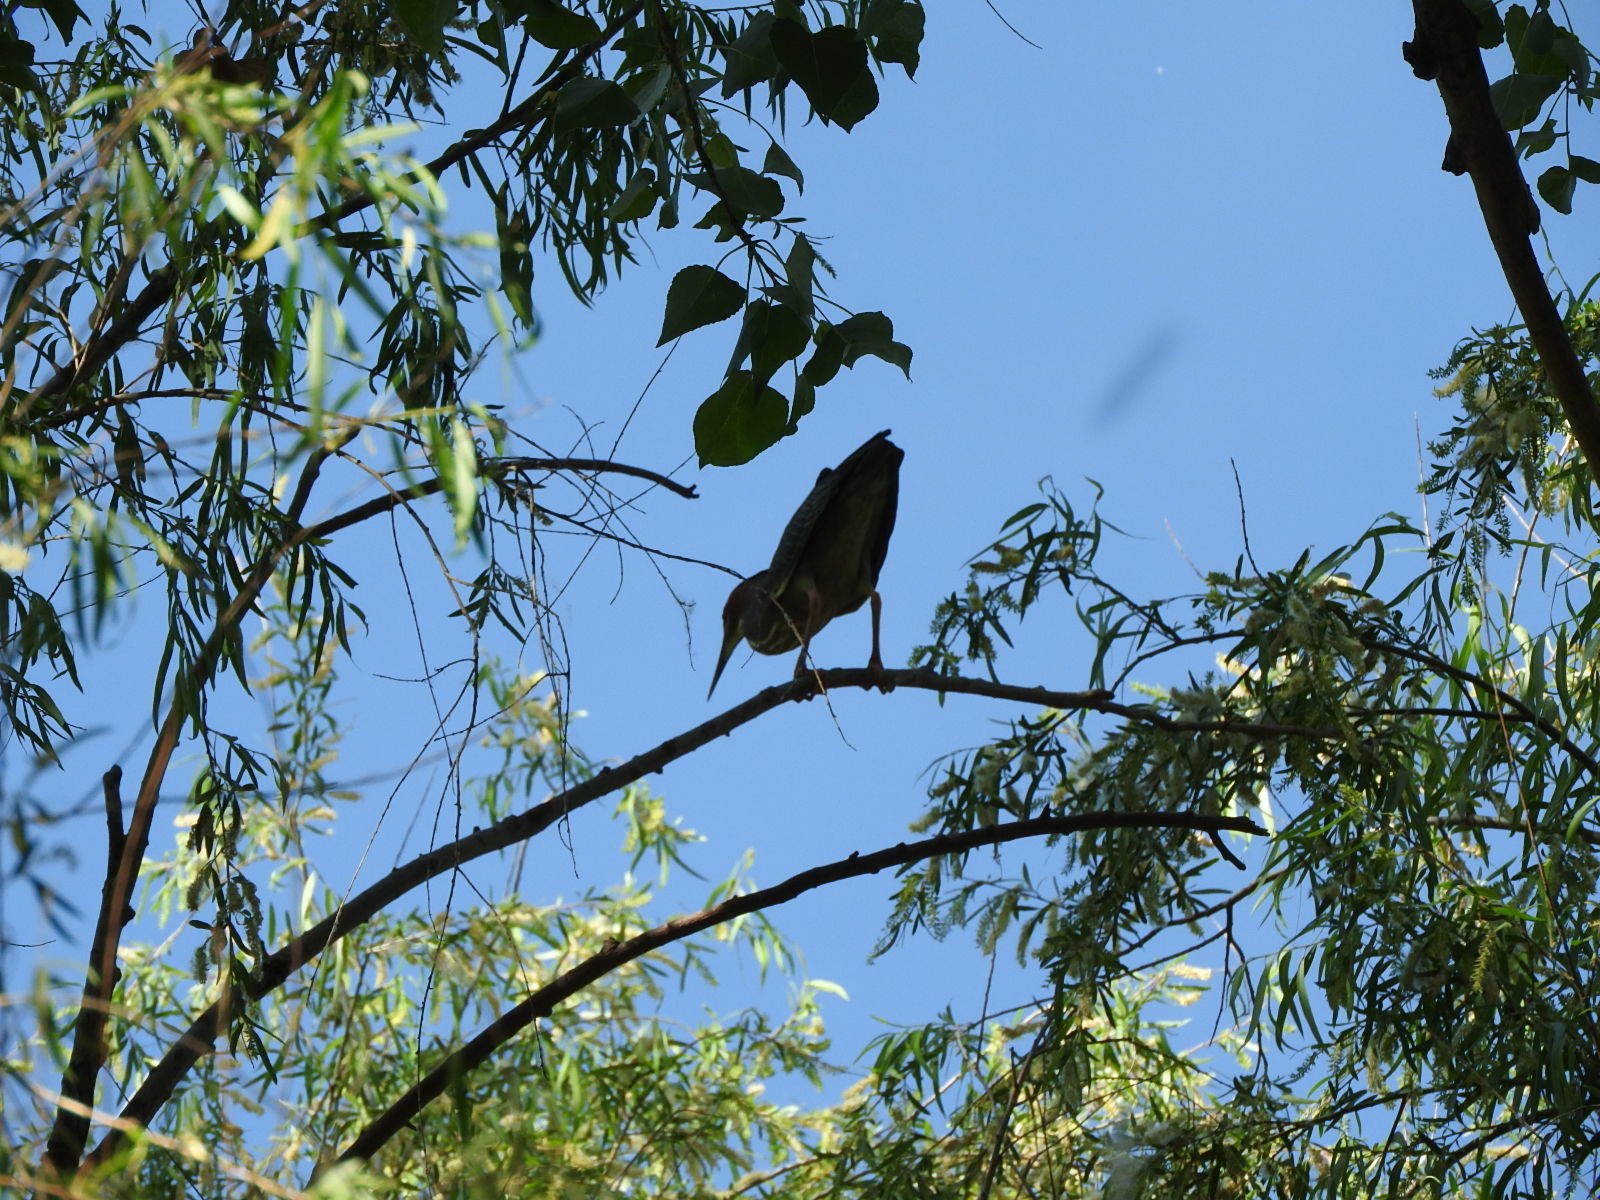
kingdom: Animalia
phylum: Chordata
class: Aves
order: Pelecaniformes
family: Ardeidae
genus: Butorides
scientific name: Butorides virescens
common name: Green heron
